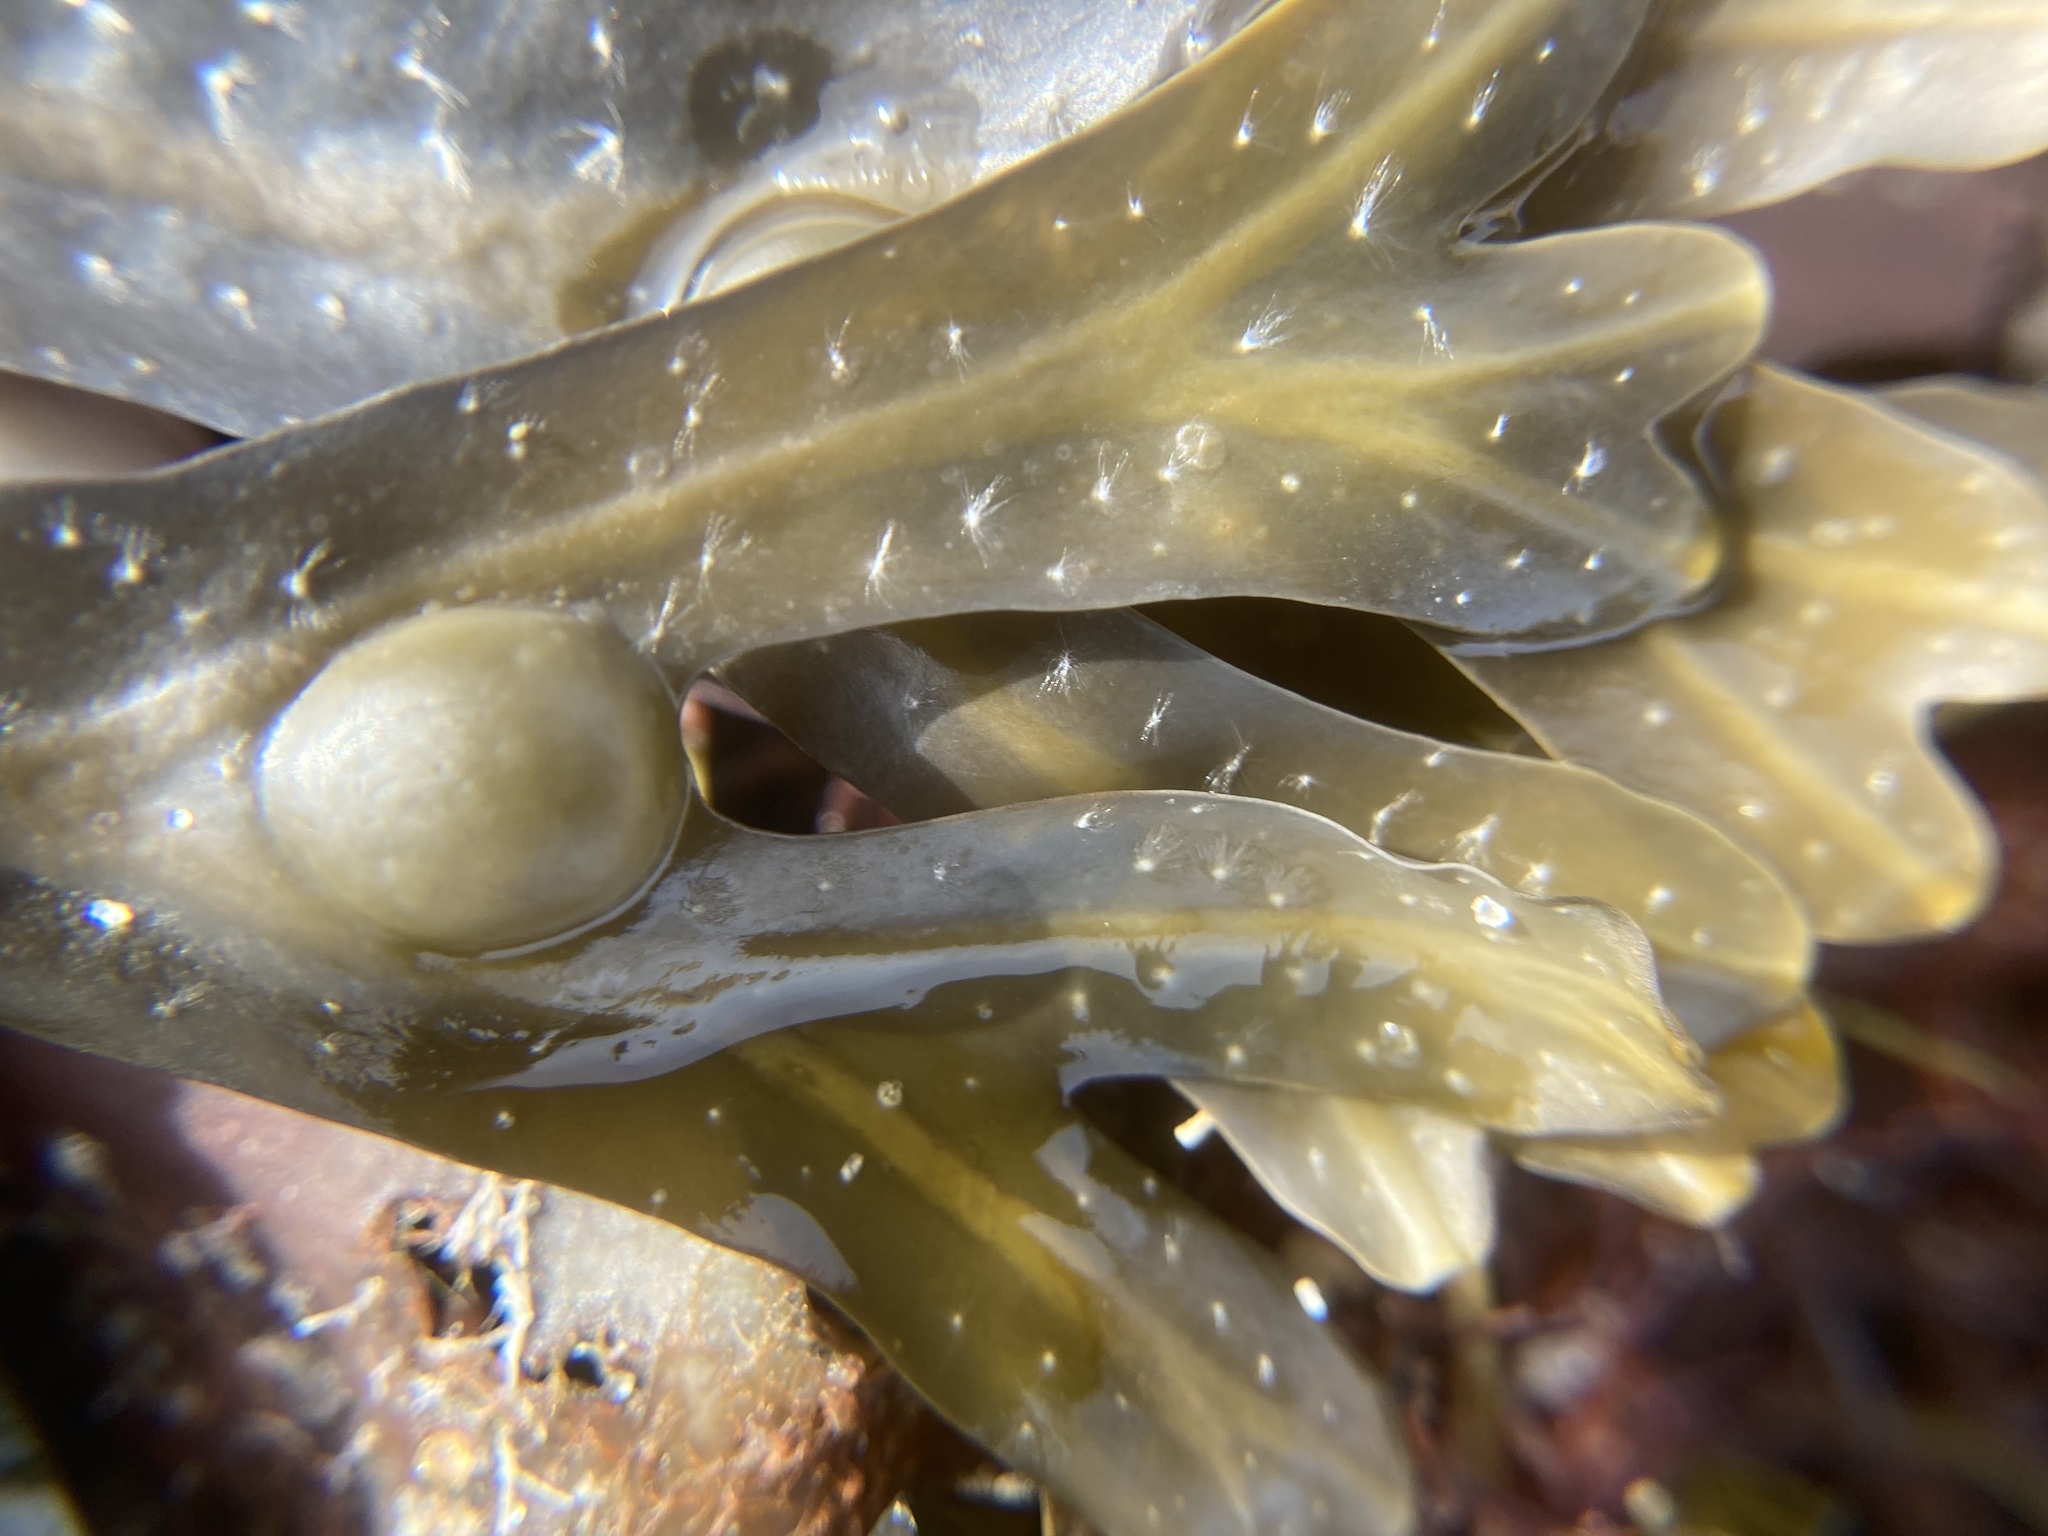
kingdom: Chromista
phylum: Ochrophyta
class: Phaeophyceae
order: Fucales
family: Fucaceae
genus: Fucus
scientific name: Fucus vesiculosus
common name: Bladder wrack
